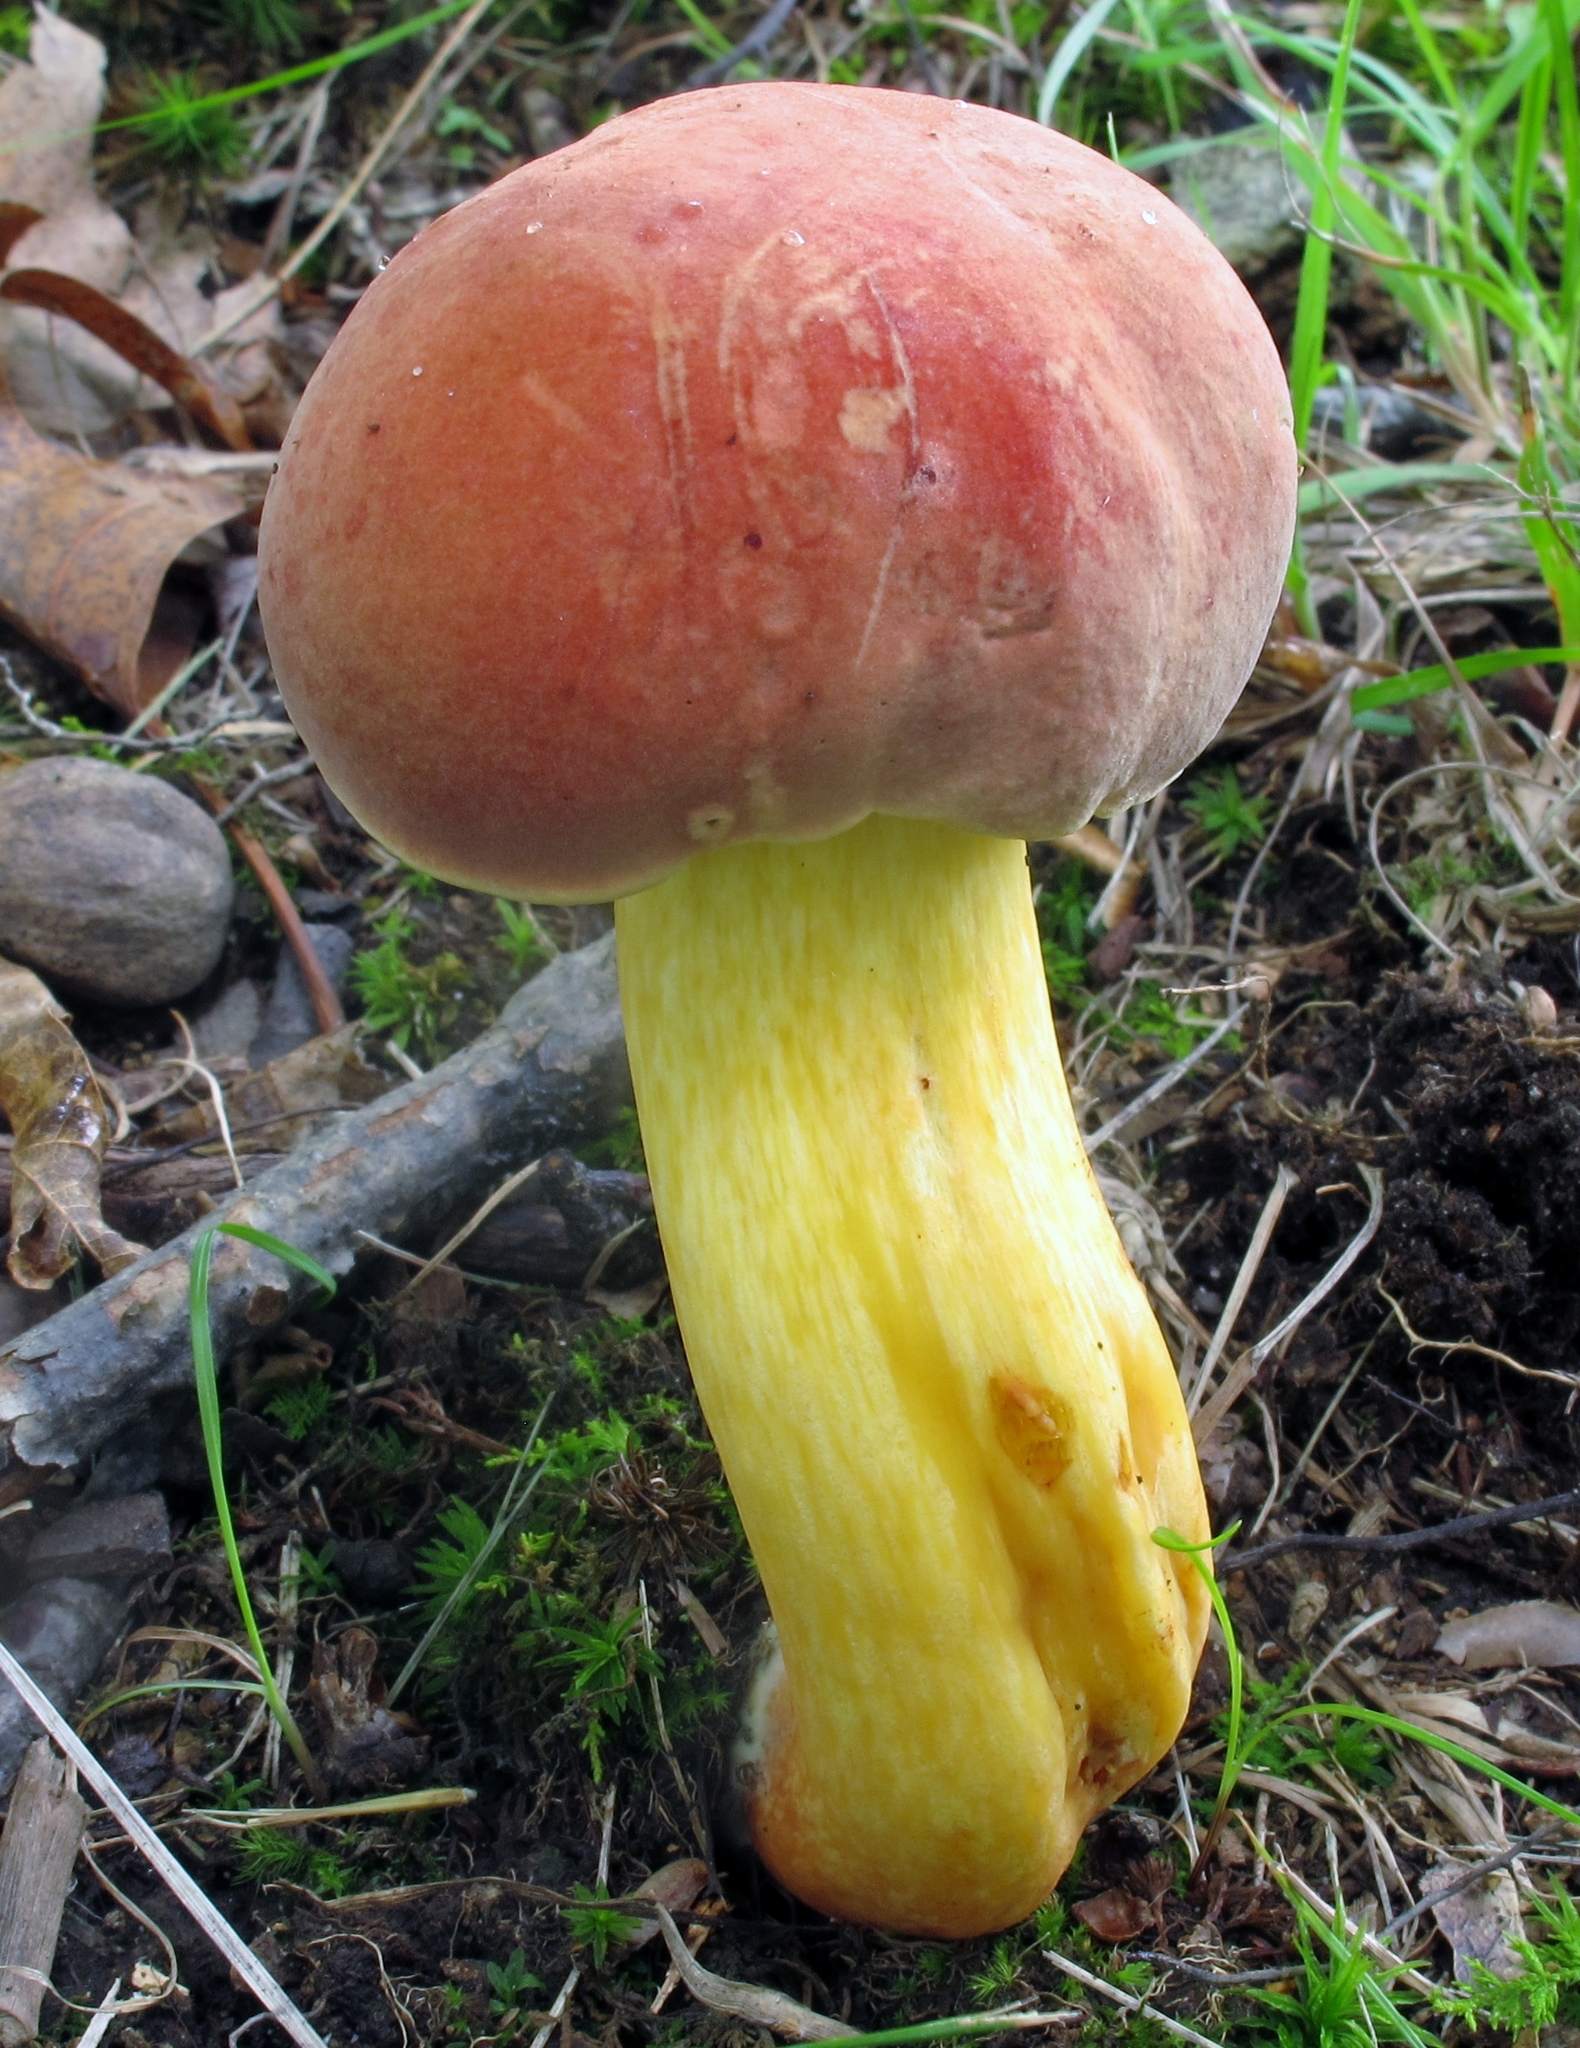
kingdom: Fungi
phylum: Basidiomycota
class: Agaricomycetes
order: Boletales
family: Boletaceae
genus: Boletus
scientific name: Boletus miniatopallescens
